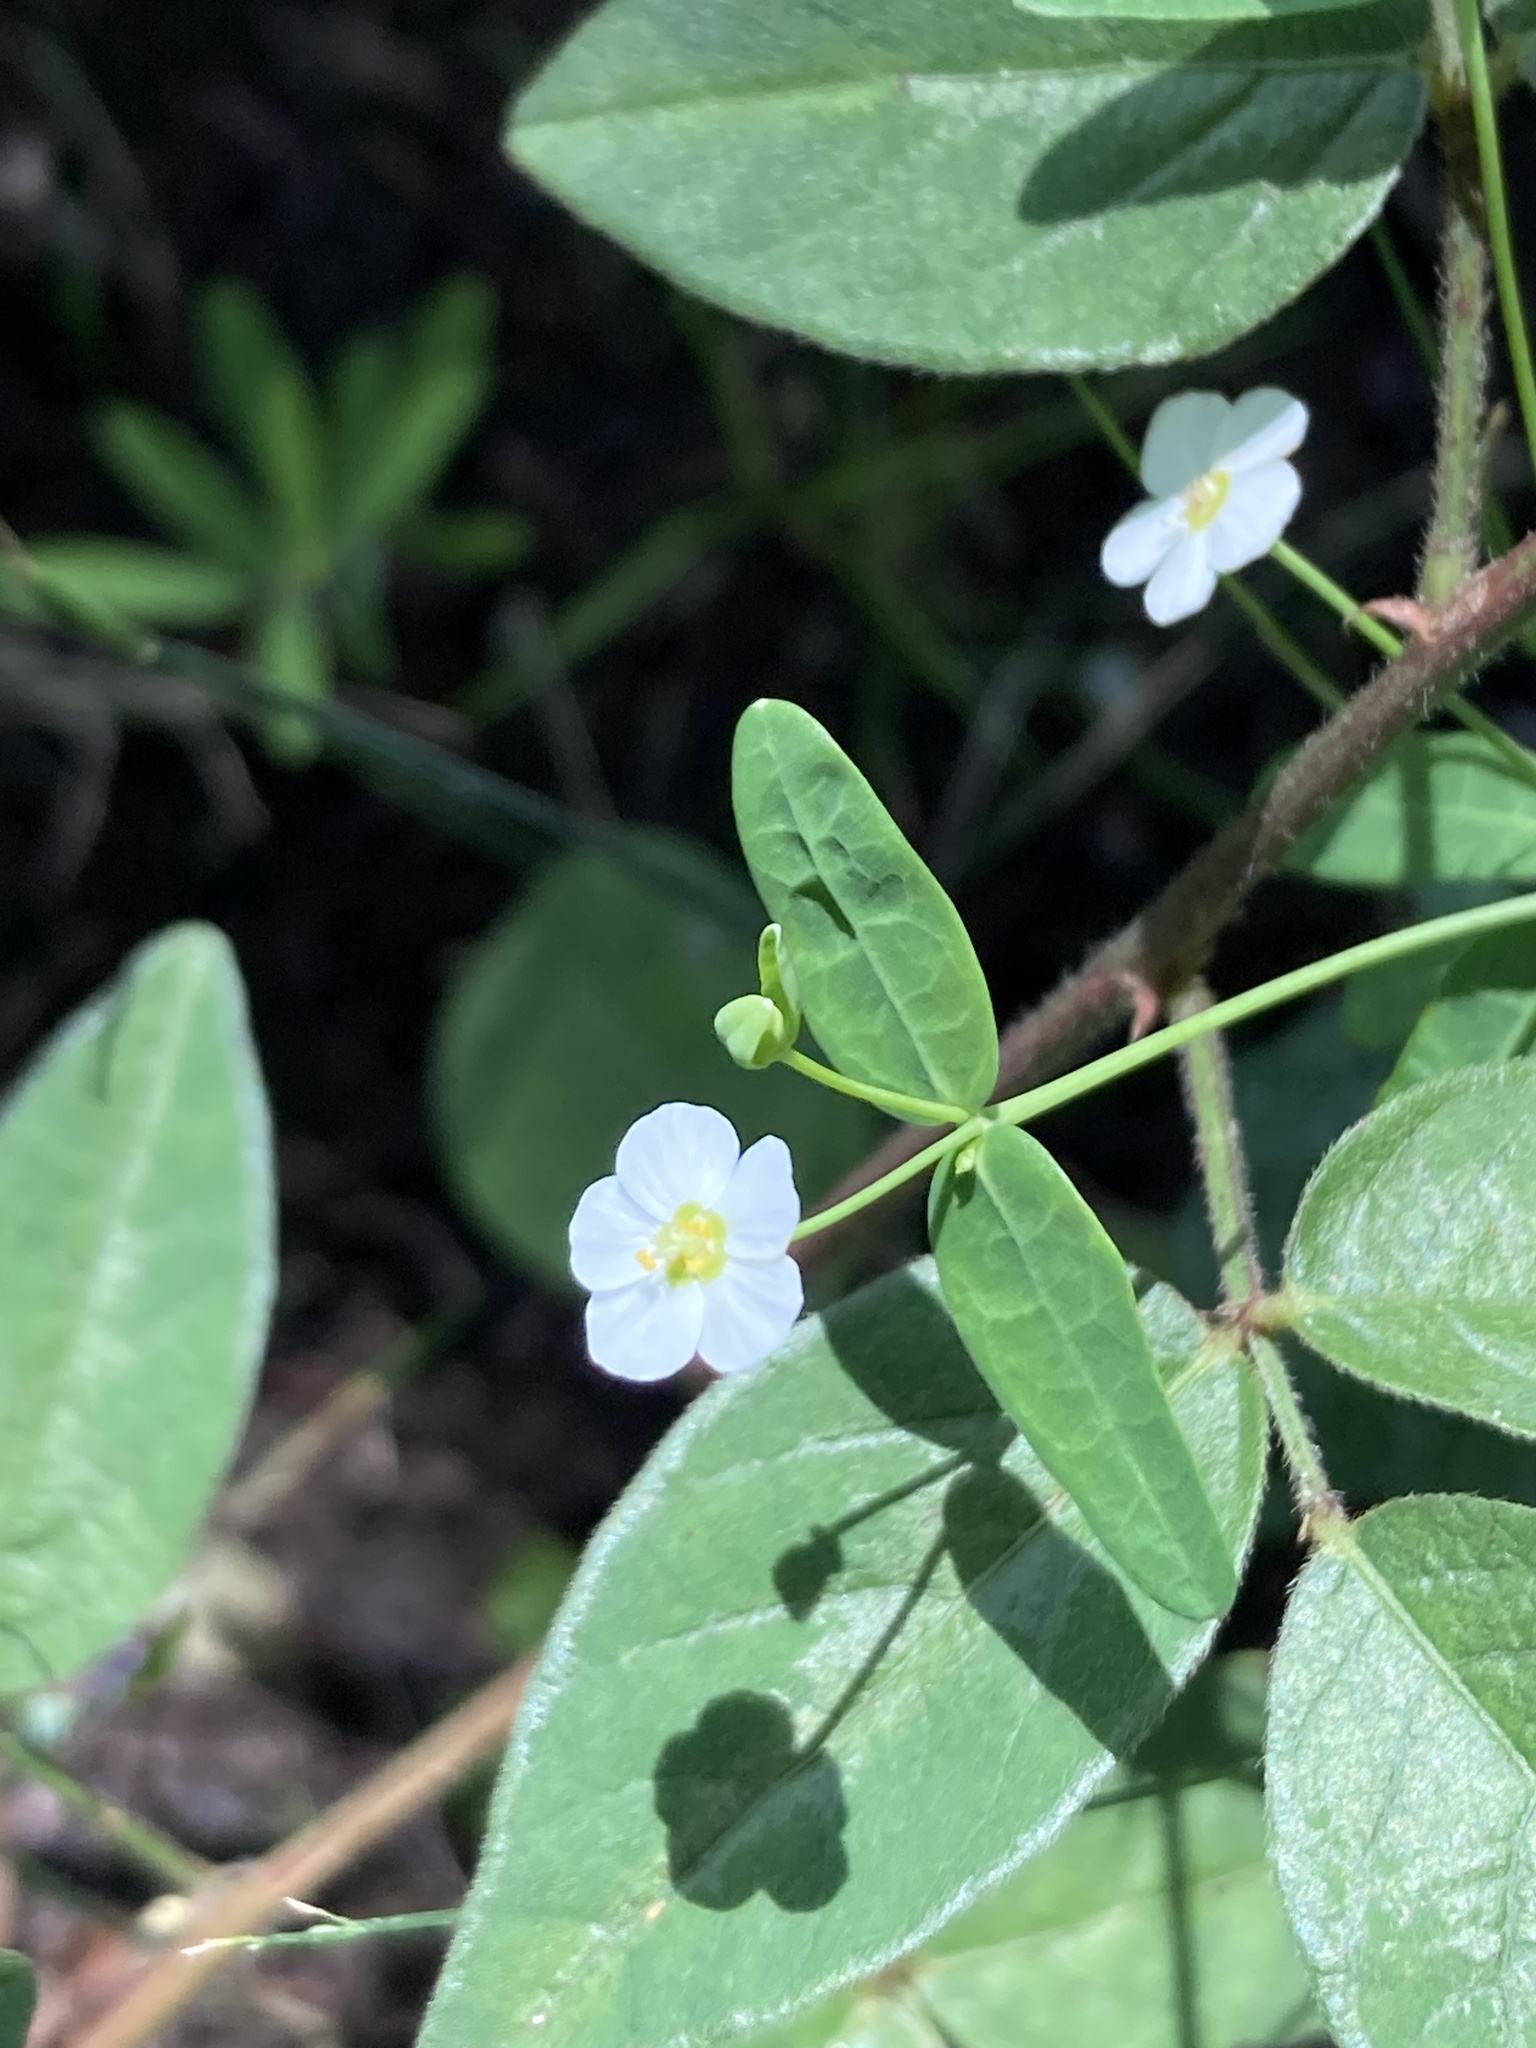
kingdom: Plantae
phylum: Tracheophyta
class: Magnoliopsida
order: Malpighiales
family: Euphorbiaceae
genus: Euphorbia
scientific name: Euphorbia corollata
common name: Flowering spurge
